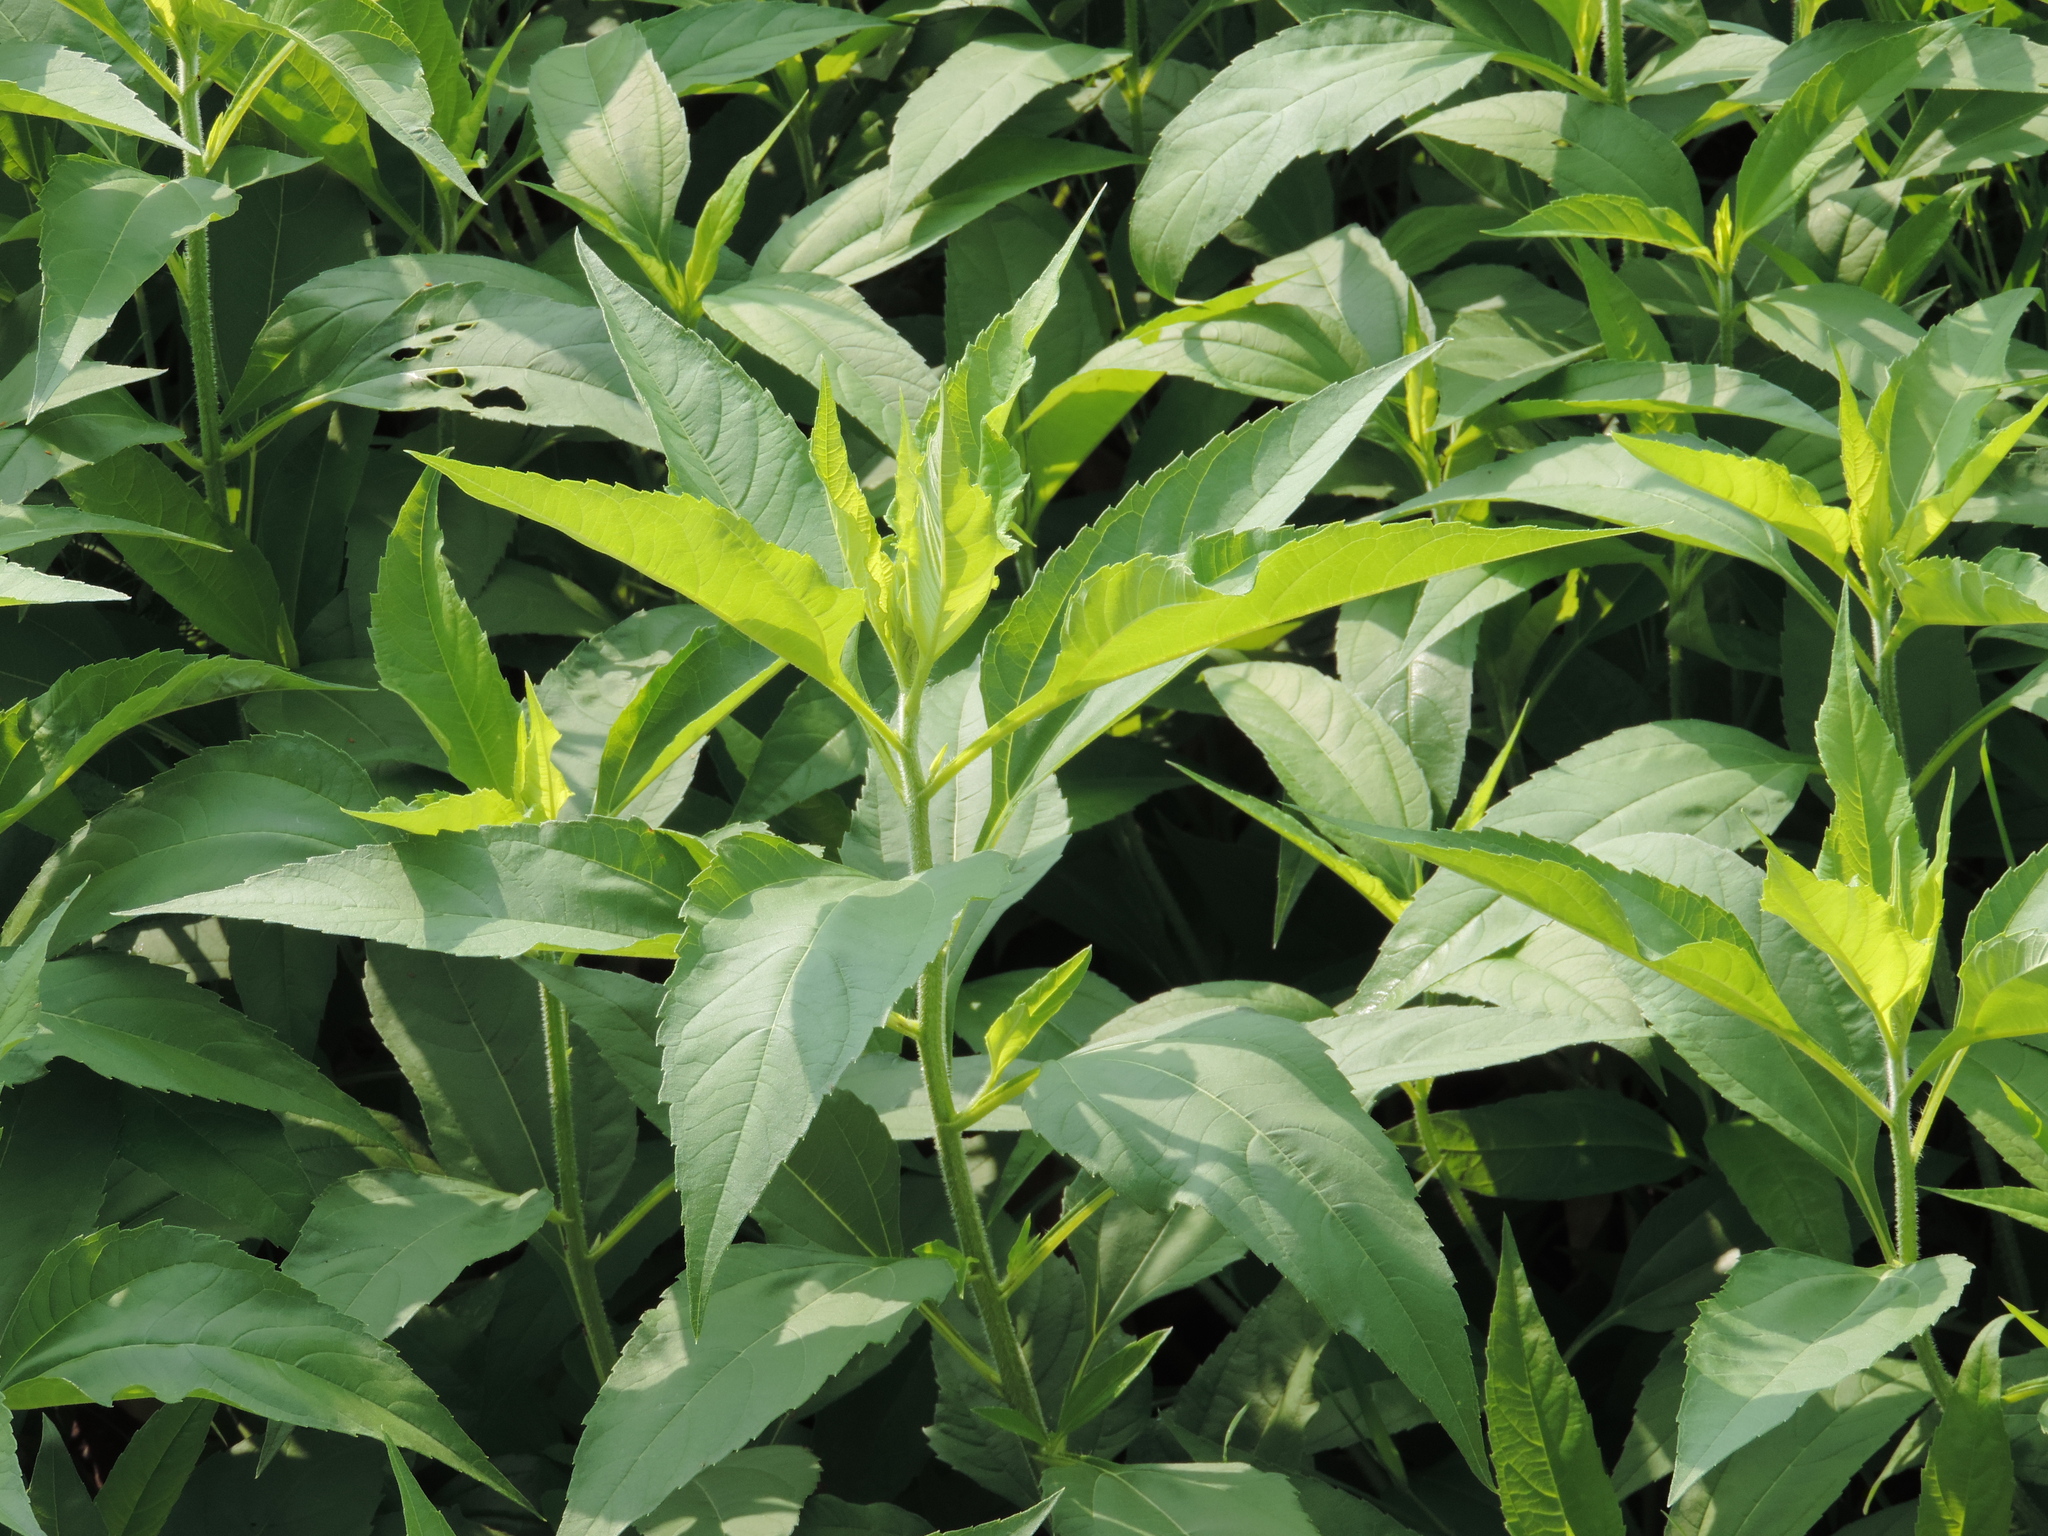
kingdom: Plantae
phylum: Tracheophyta
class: Magnoliopsida
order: Asterales
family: Asteraceae
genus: Helianthus
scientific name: Helianthus tuberosus
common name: Jerusalem artichoke
